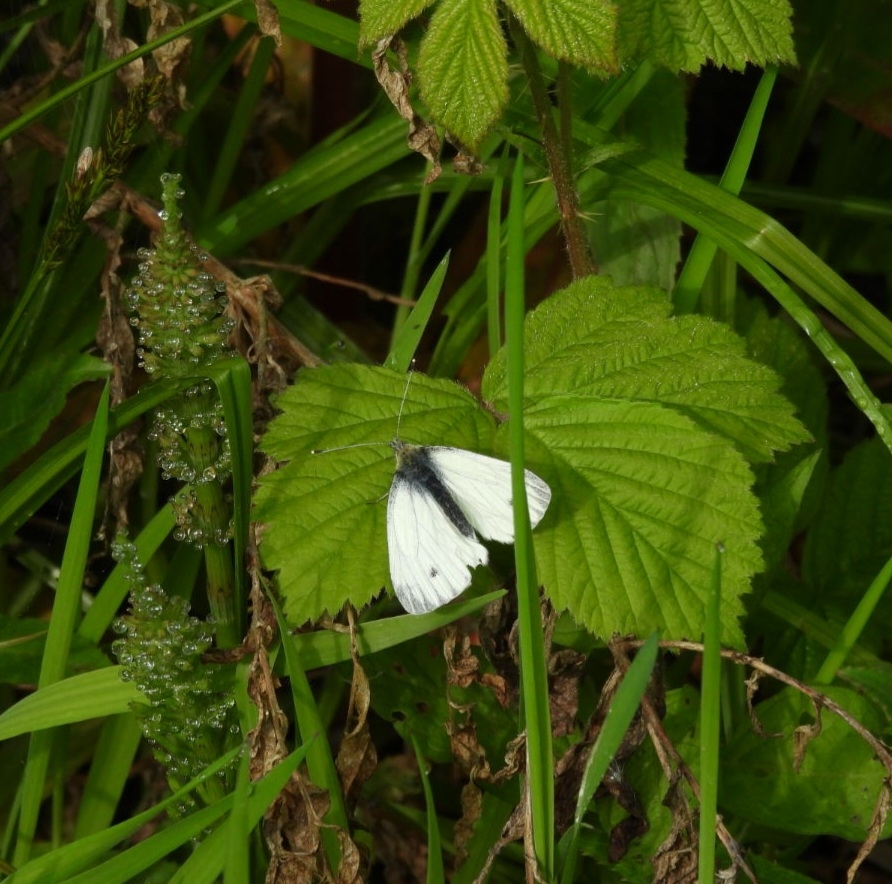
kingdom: Animalia
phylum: Arthropoda
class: Insecta
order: Lepidoptera
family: Pieridae
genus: Pieris
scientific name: Pieris napi
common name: Green-veined white
